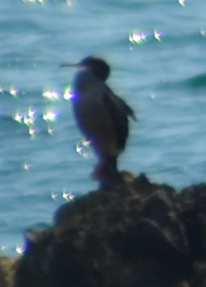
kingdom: Animalia
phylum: Chordata
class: Aves
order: Suliformes
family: Phalacrocoracidae
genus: Phalacrocorax
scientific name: Phalacrocorax aristotelis
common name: European shag
